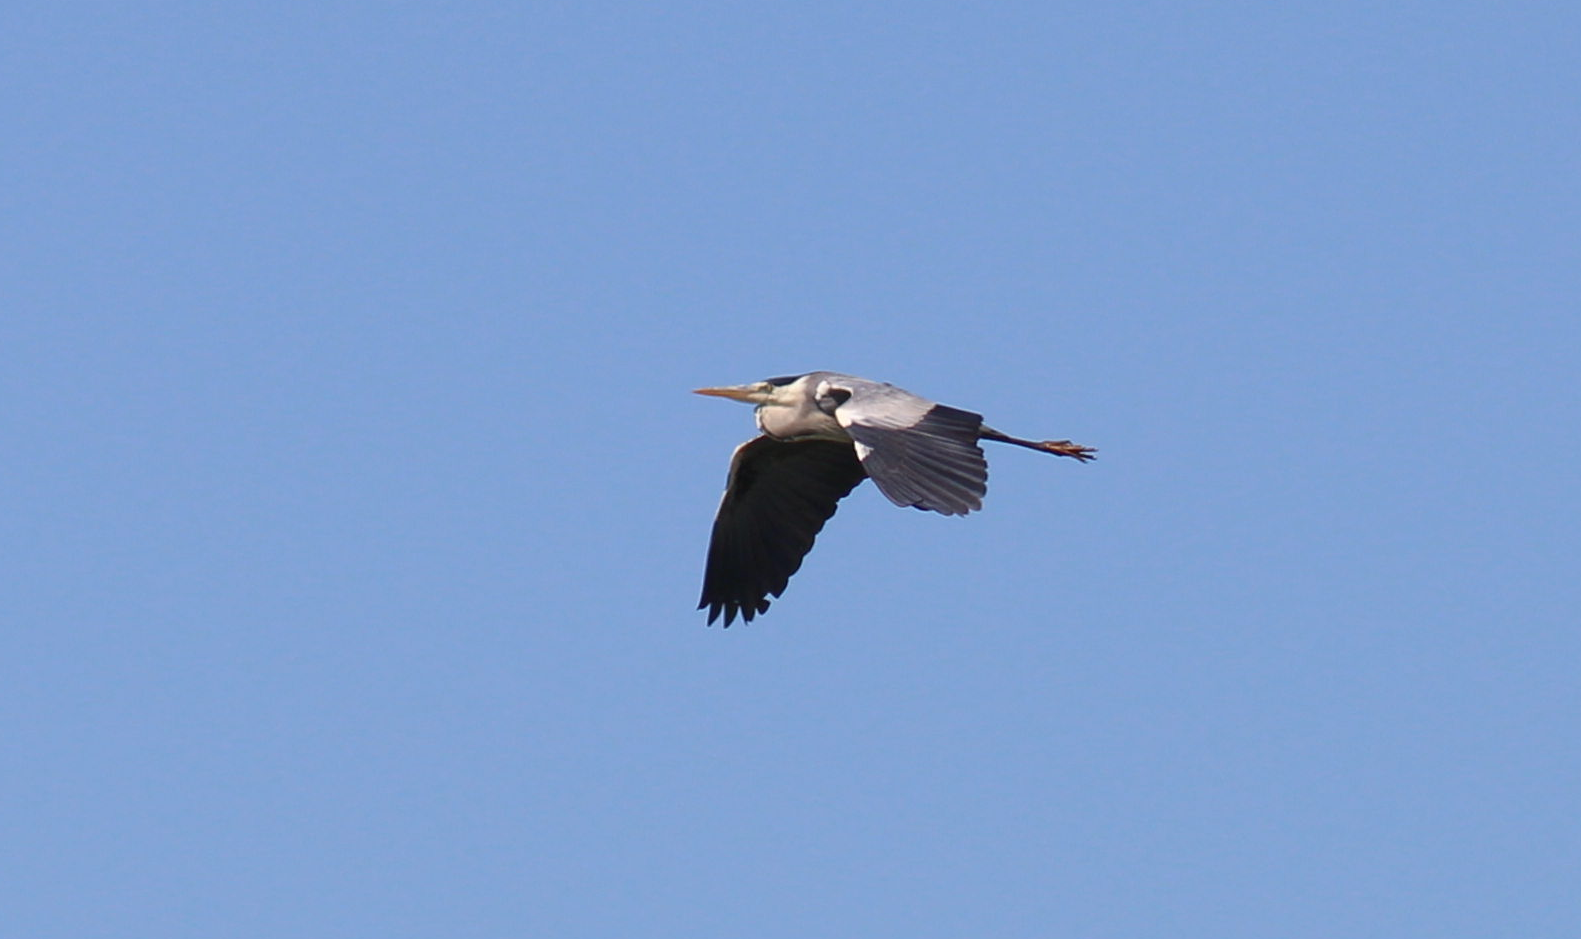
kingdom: Animalia
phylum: Chordata
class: Aves
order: Pelecaniformes
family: Ardeidae
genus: Ardea
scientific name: Ardea cinerea
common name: Grey heron
